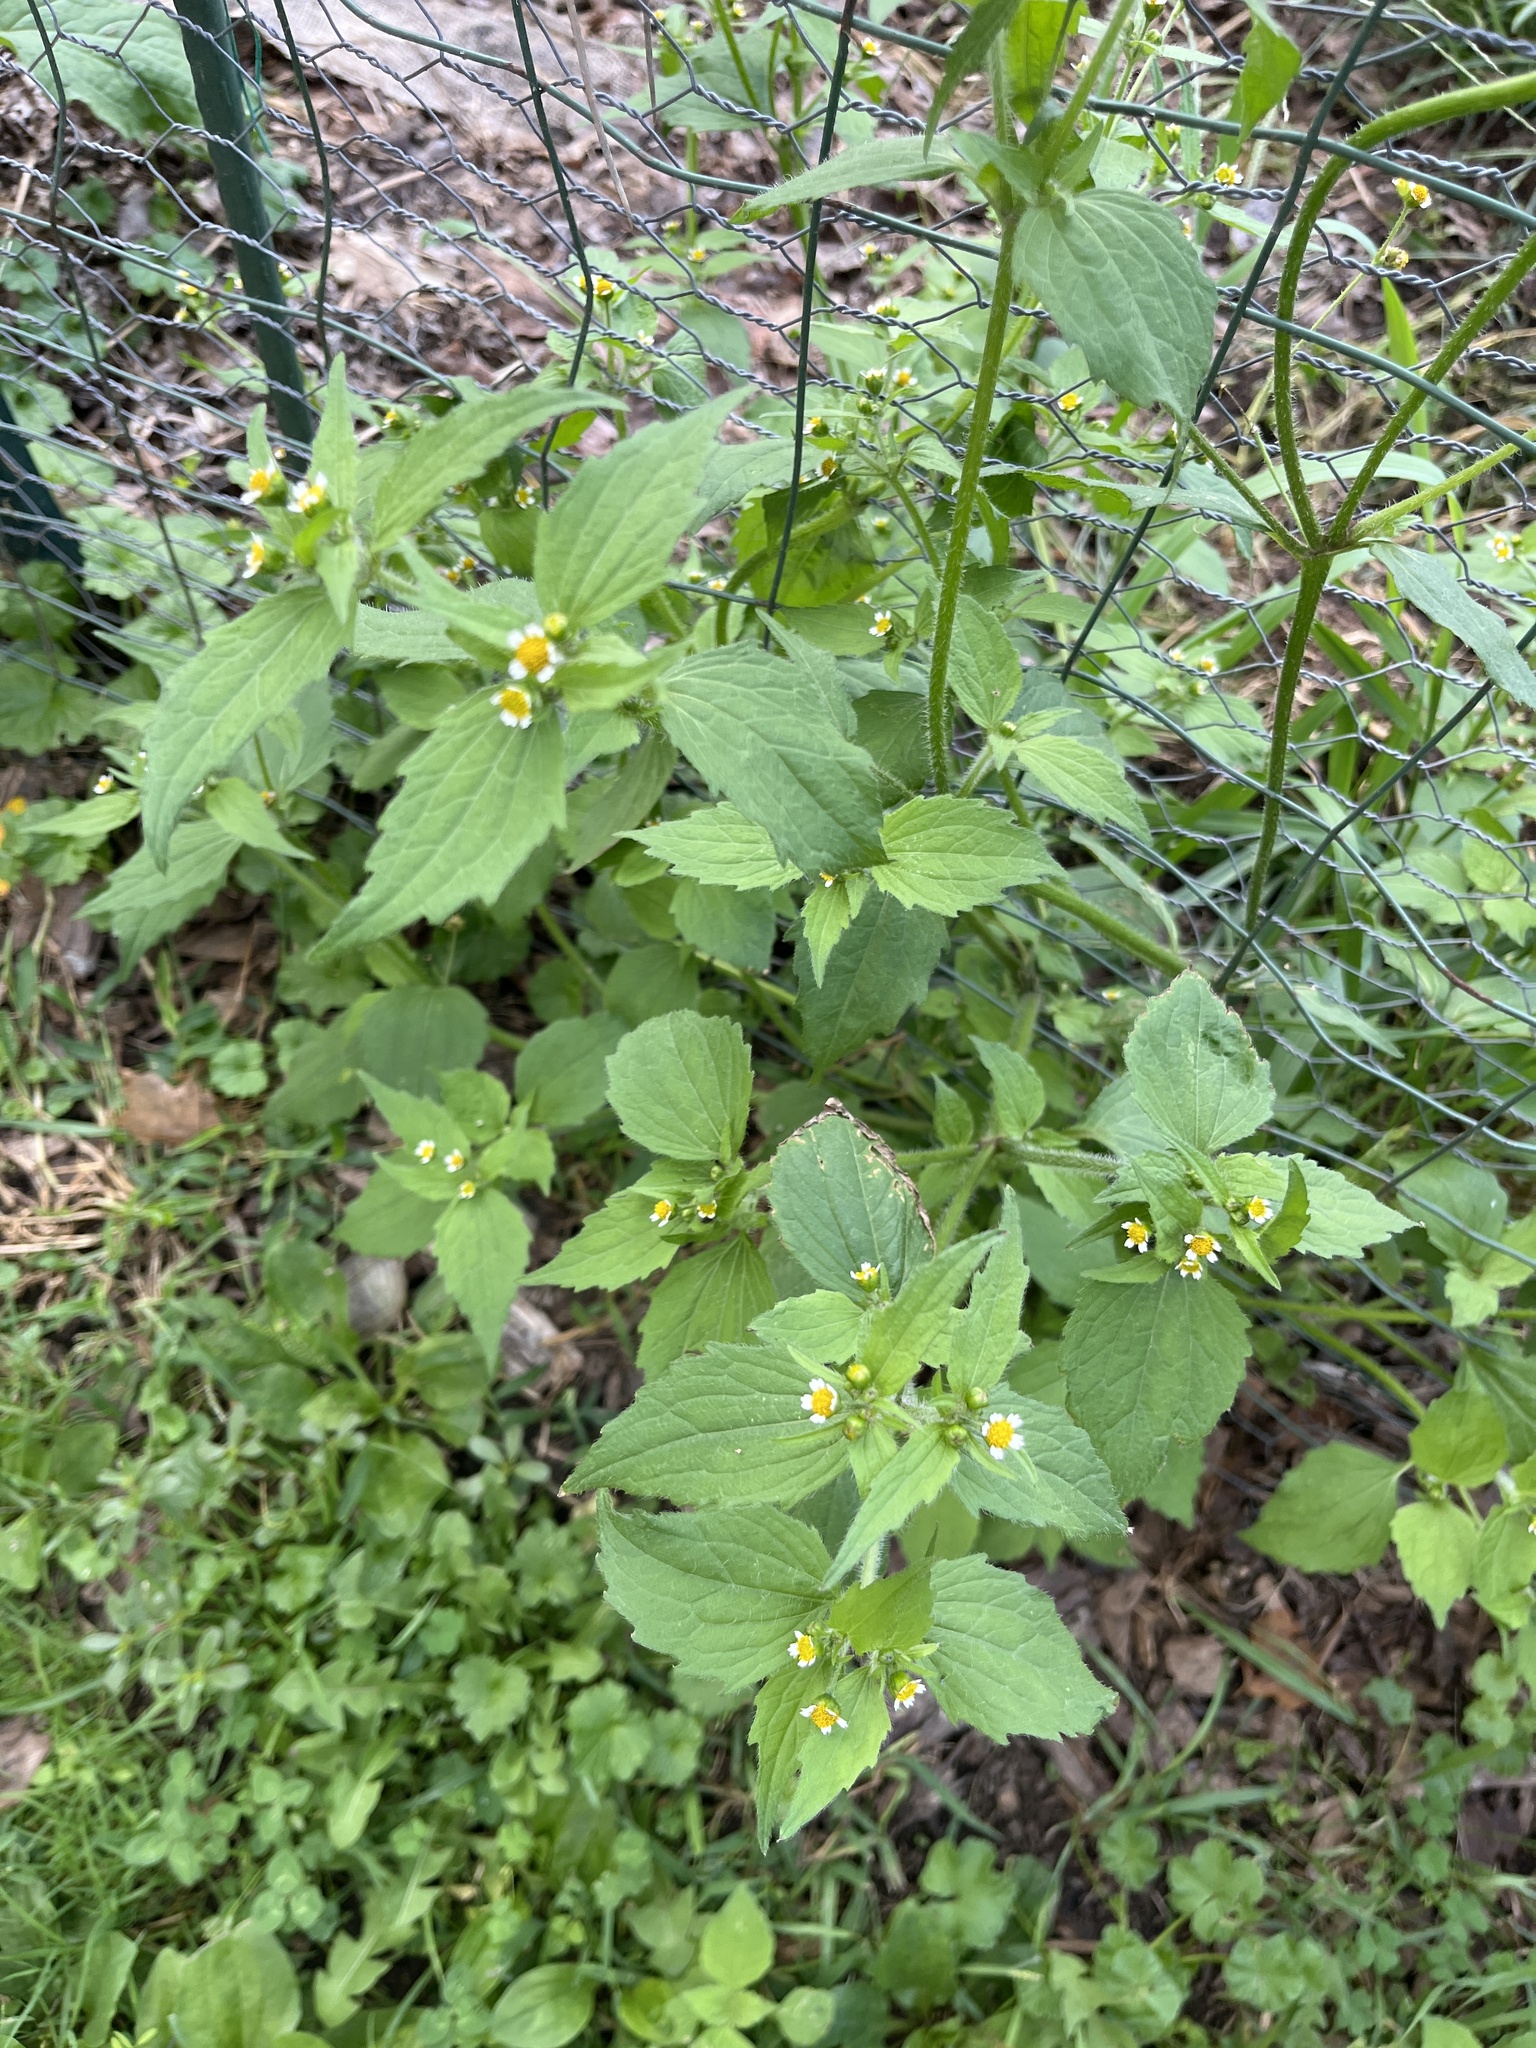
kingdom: Plantae
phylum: Tracheophyta
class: Magnoliopsida
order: Asterales
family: Asteraceae
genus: Galinsoga
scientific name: Galinsoga quadriradiata
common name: Shaggy soldier
